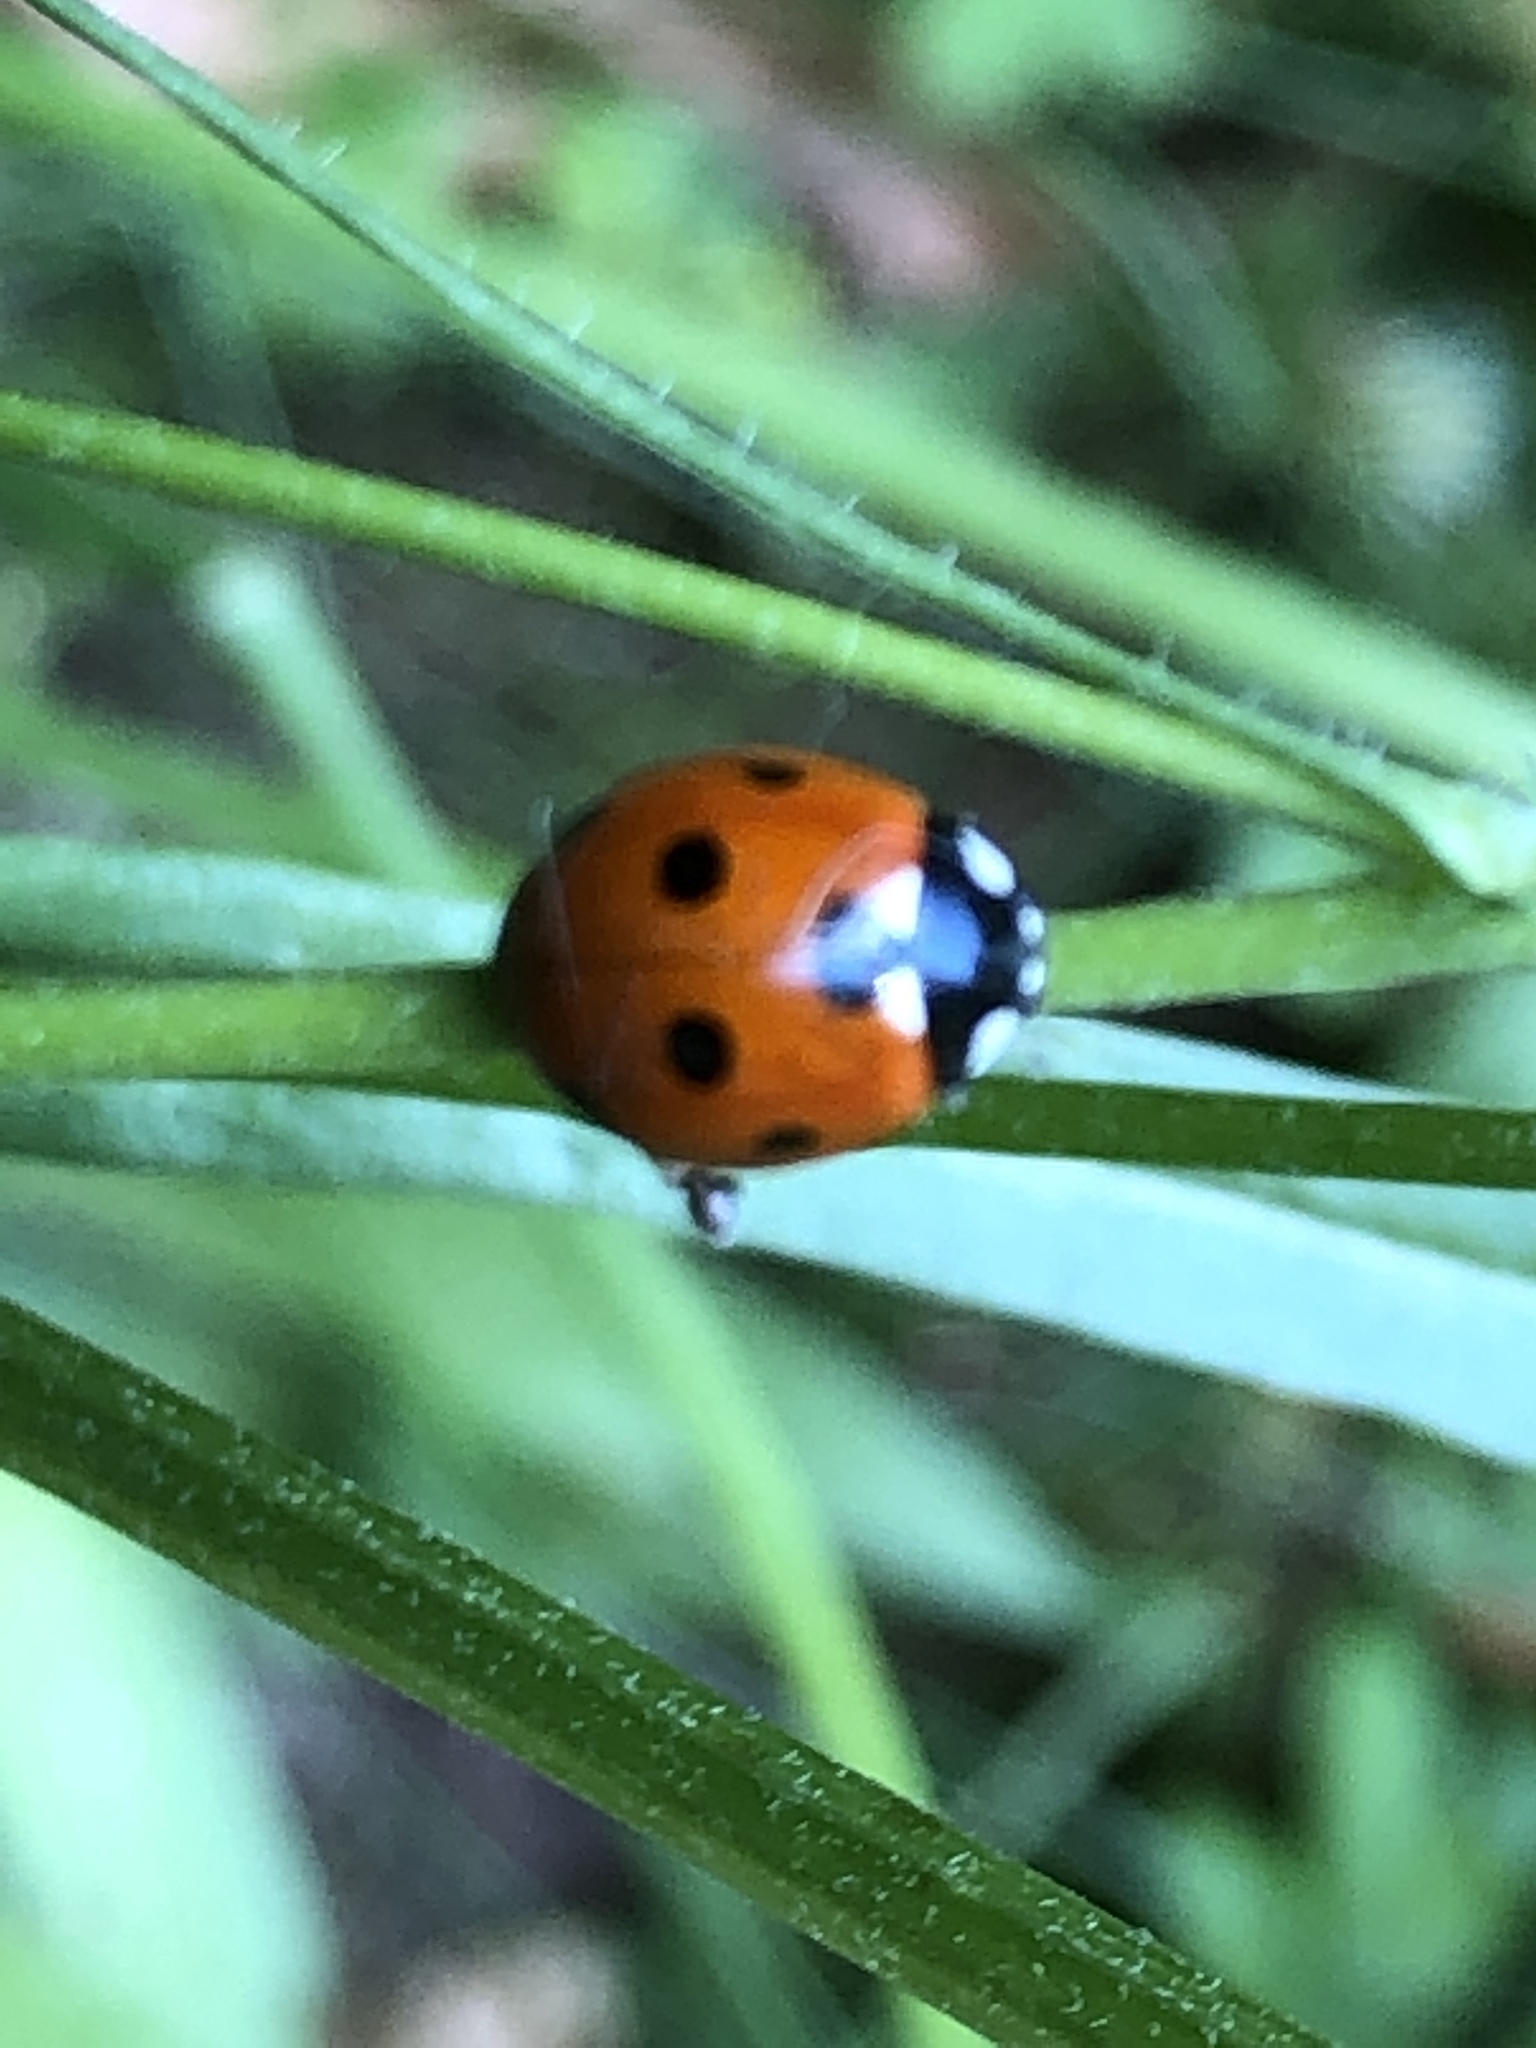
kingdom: Animalia
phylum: Arthropoda
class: Insecta
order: Coleoptera
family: Coccinellidae
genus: Coccinella
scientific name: Coccinella septempunctata
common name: Sevenspotted lady beetle
